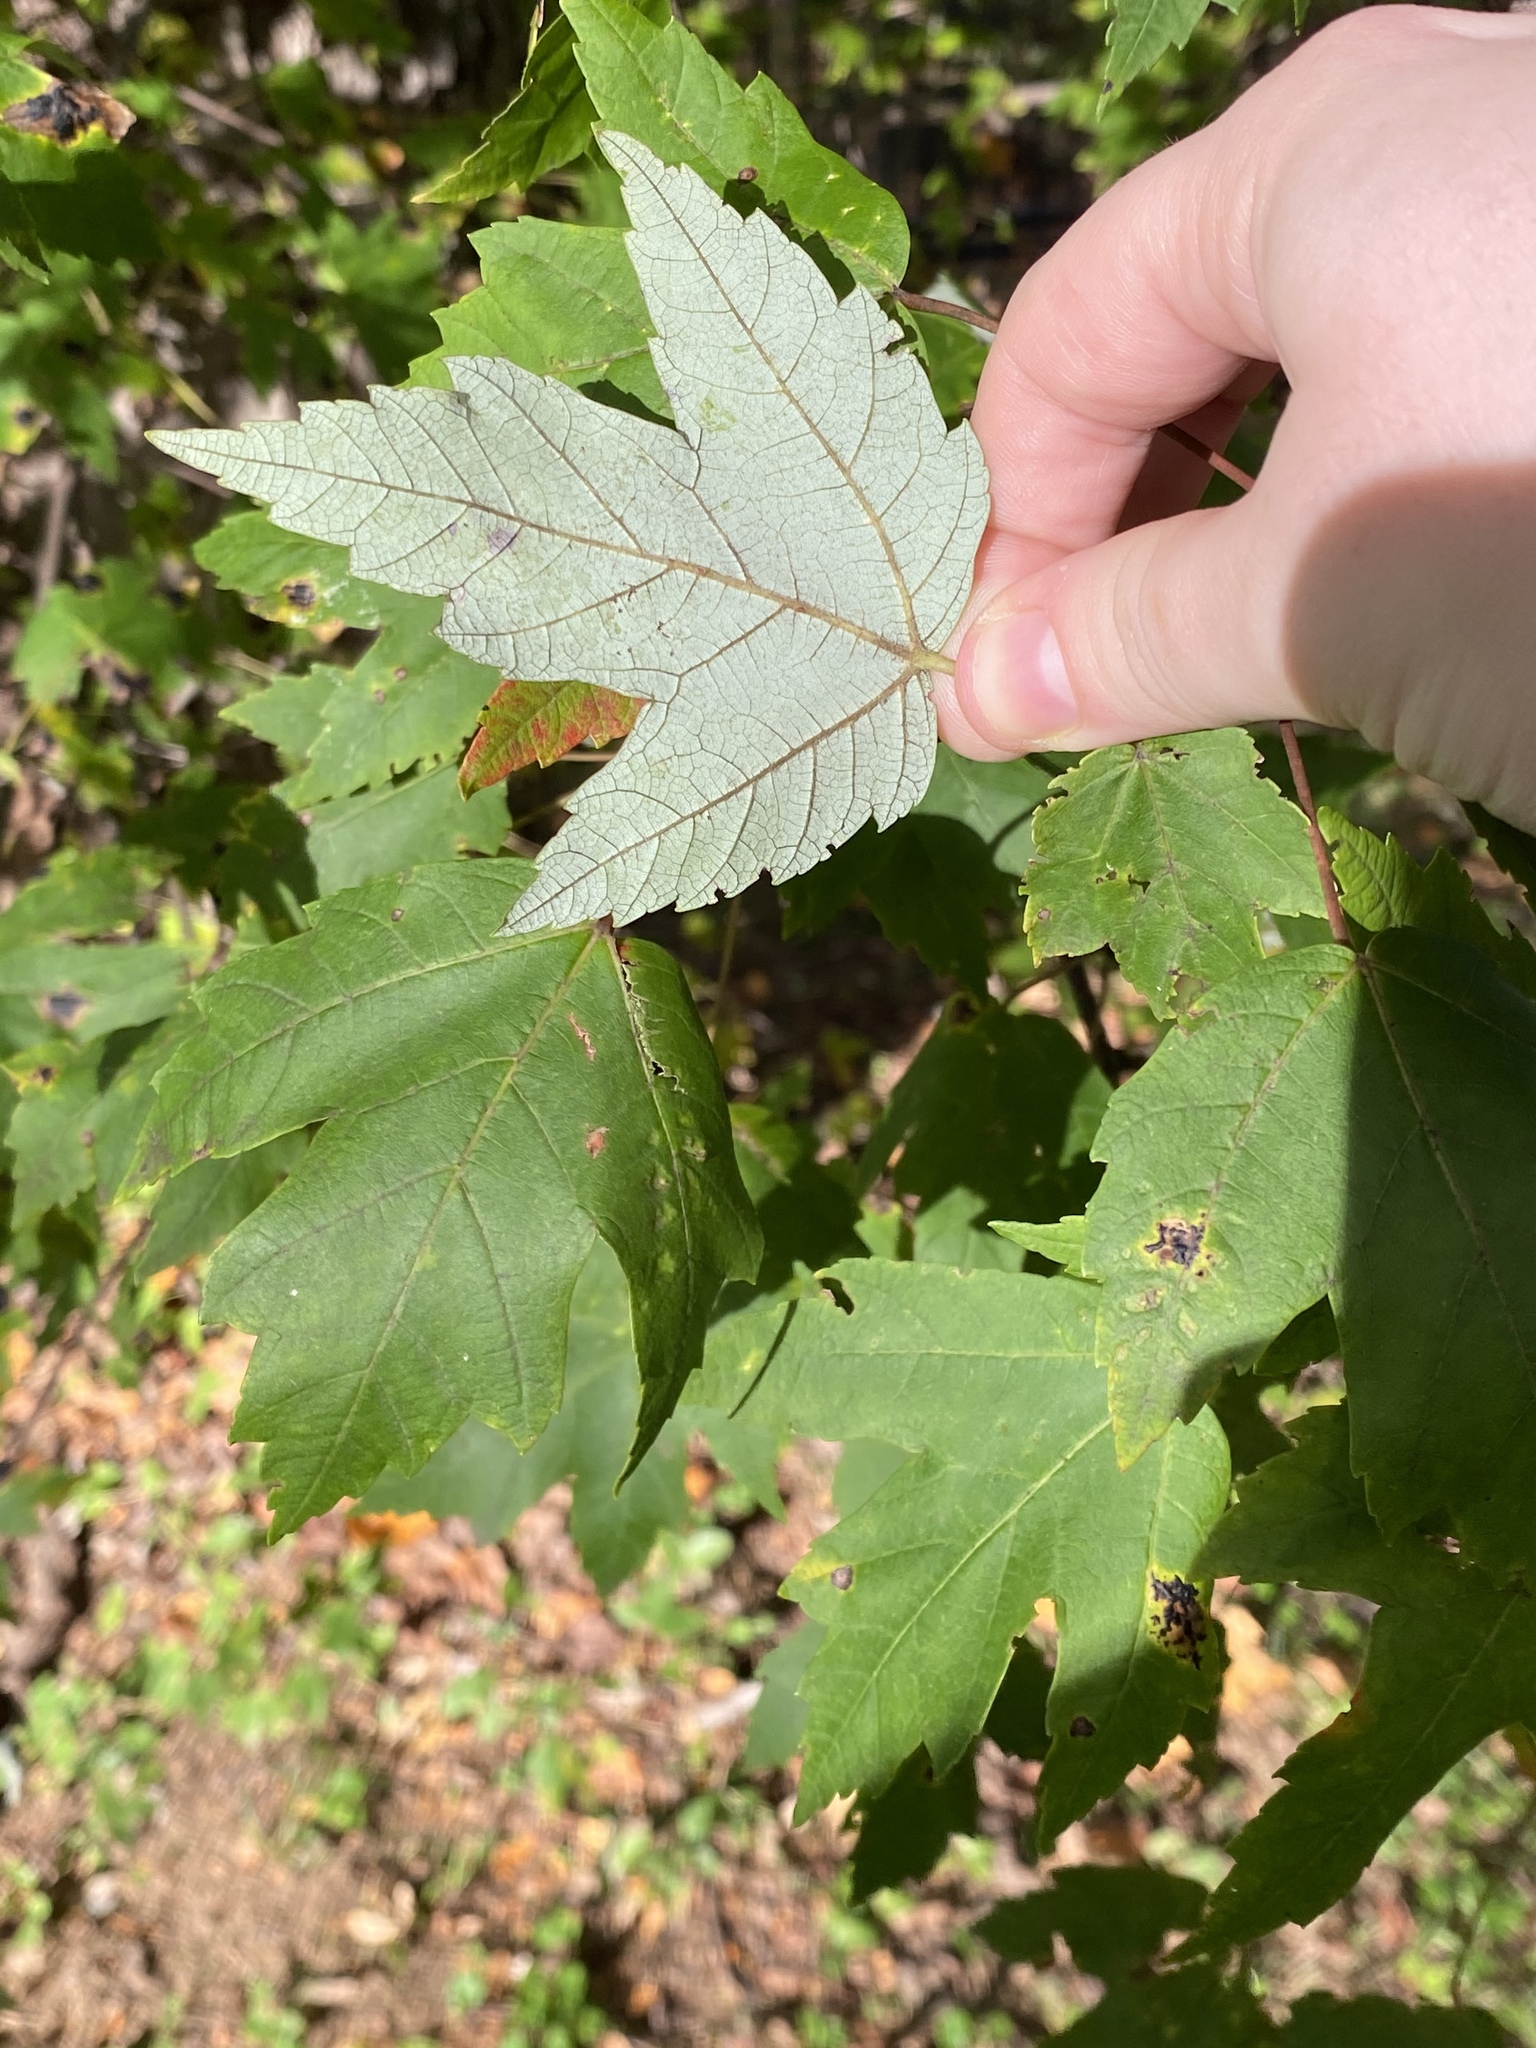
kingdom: Fungi
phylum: Ascomycota
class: Leotiomycetes
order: Rhytismatales
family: Rhytismataceae
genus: Rhytisma
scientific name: Rhytisma americanum
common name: American tar spot
